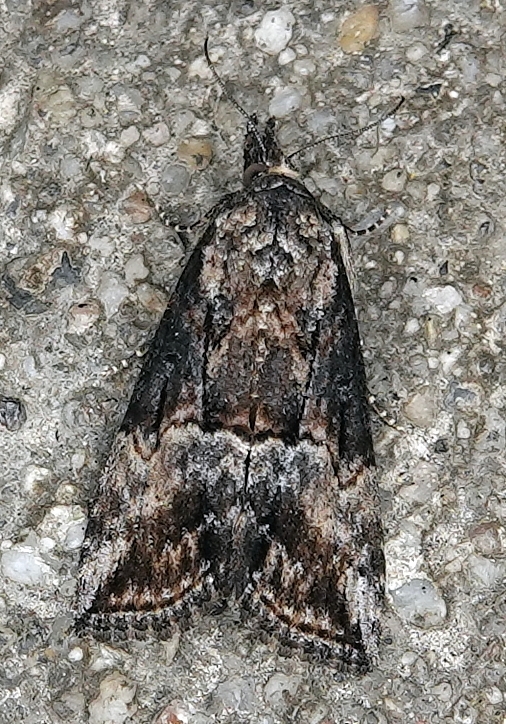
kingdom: Animalia
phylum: Arthropoda
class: Insecta
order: Lepidoptera
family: Erebidae
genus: Hypena
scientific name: Hypena scabra
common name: Green cloverworm
